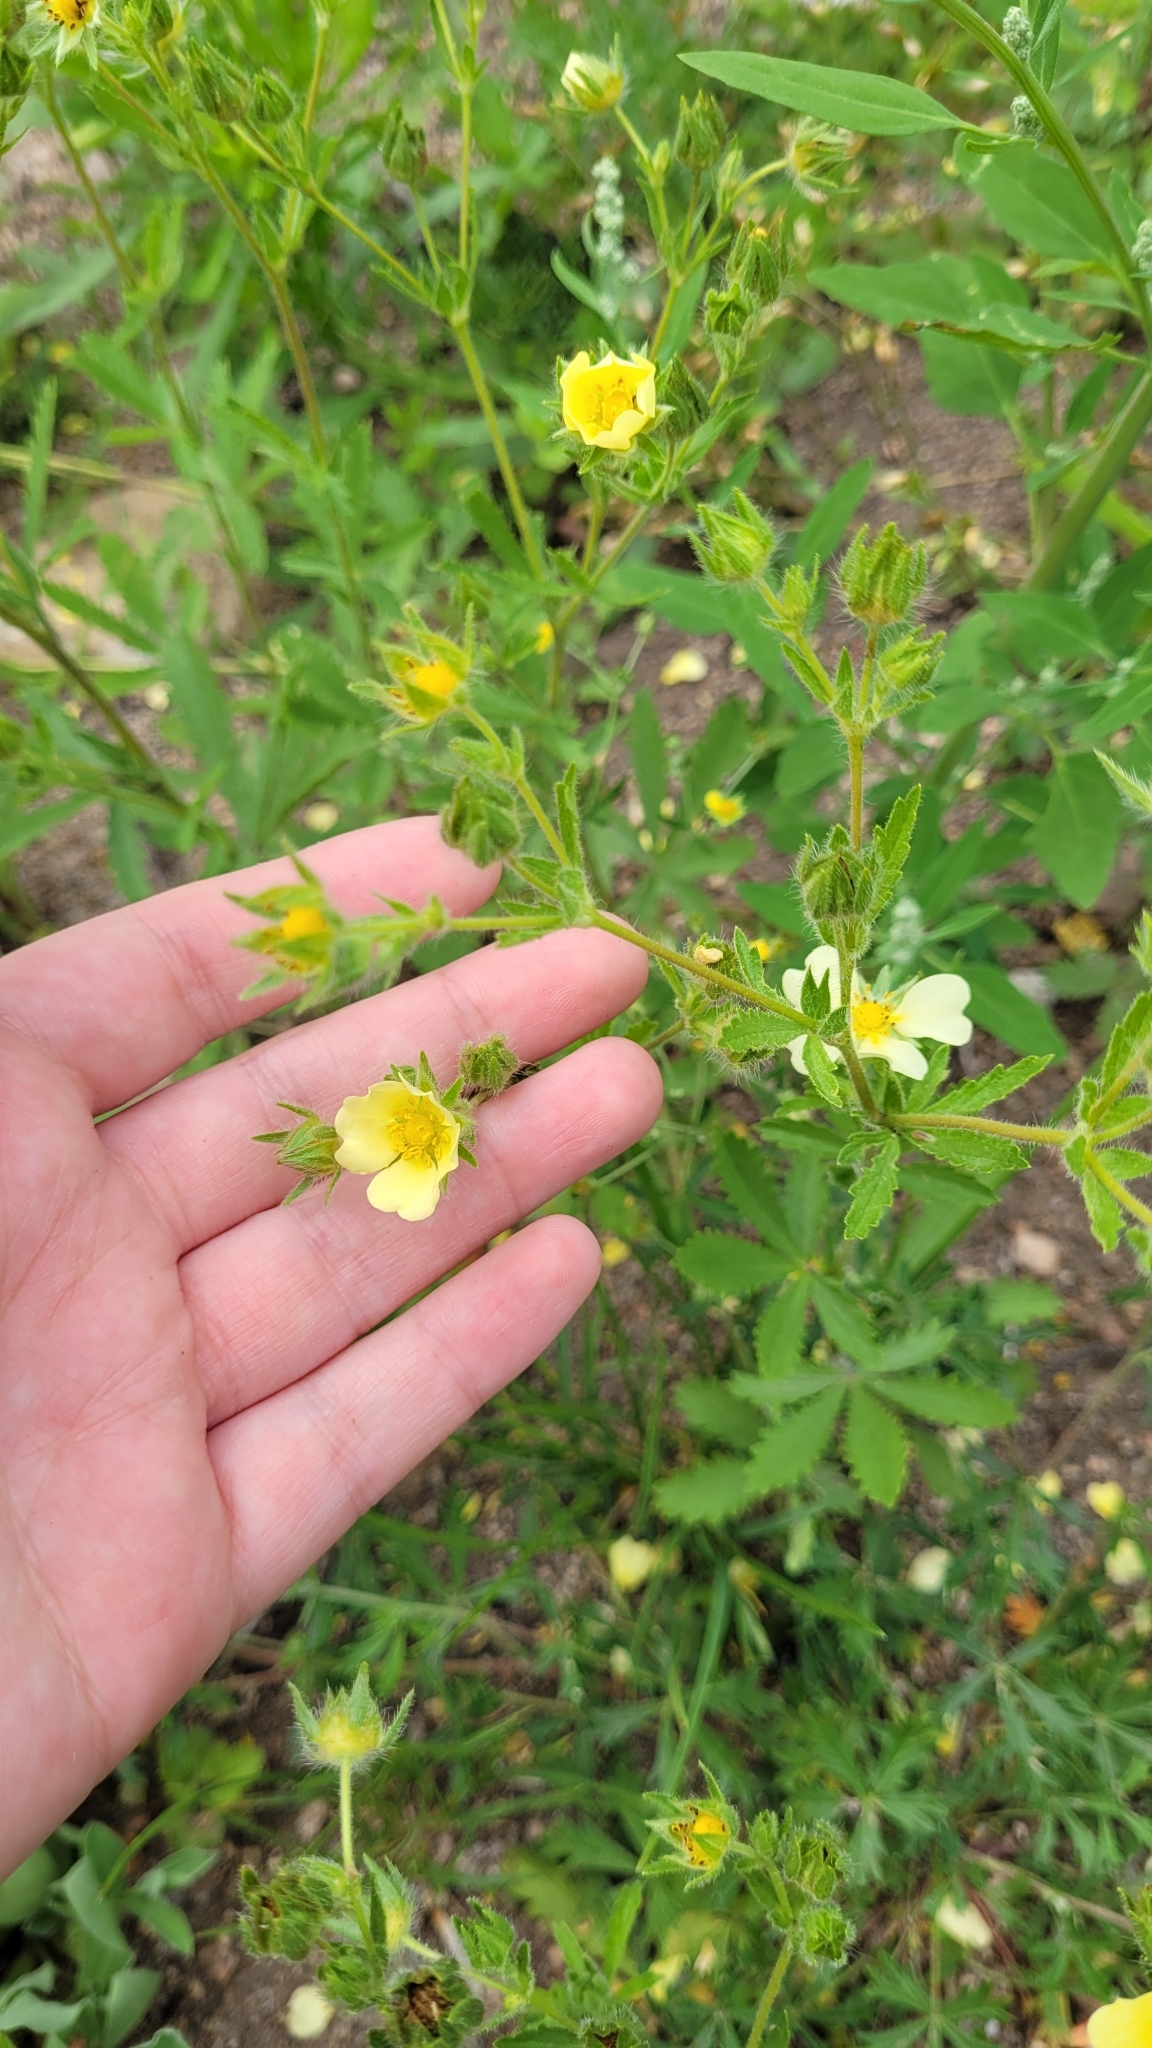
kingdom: Plantae
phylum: Tracheophyta
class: Magnoliopsida
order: Rosales
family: Rosaceae
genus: Potentilla
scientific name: Potentilla recta
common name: Sulphur cinquefoil
